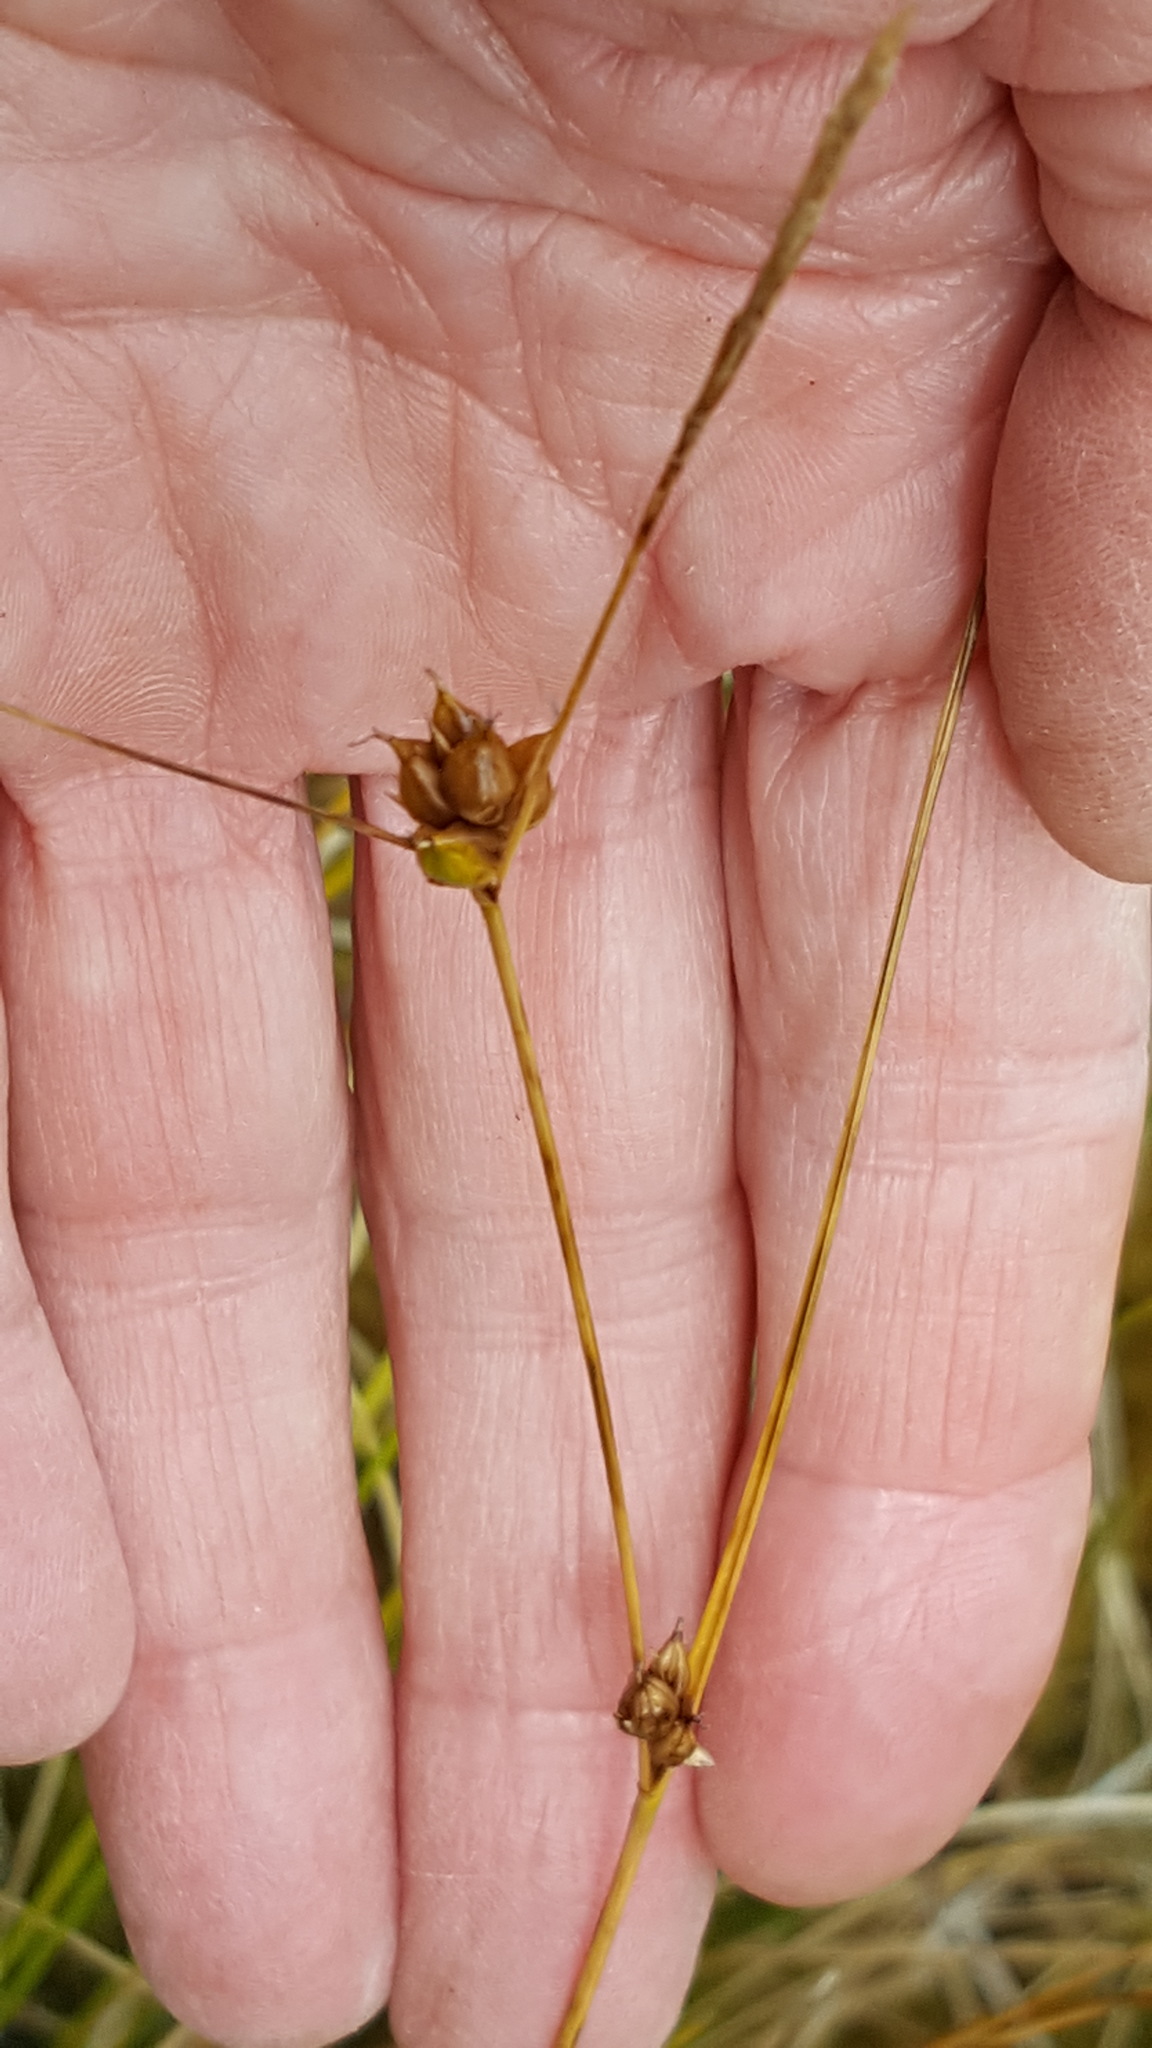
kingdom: Plantae
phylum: Tracheophyta
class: Liliopsida
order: Poales
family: Cyperaceae
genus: Carex
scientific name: Carex oligosperma
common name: Few-seed sedge
